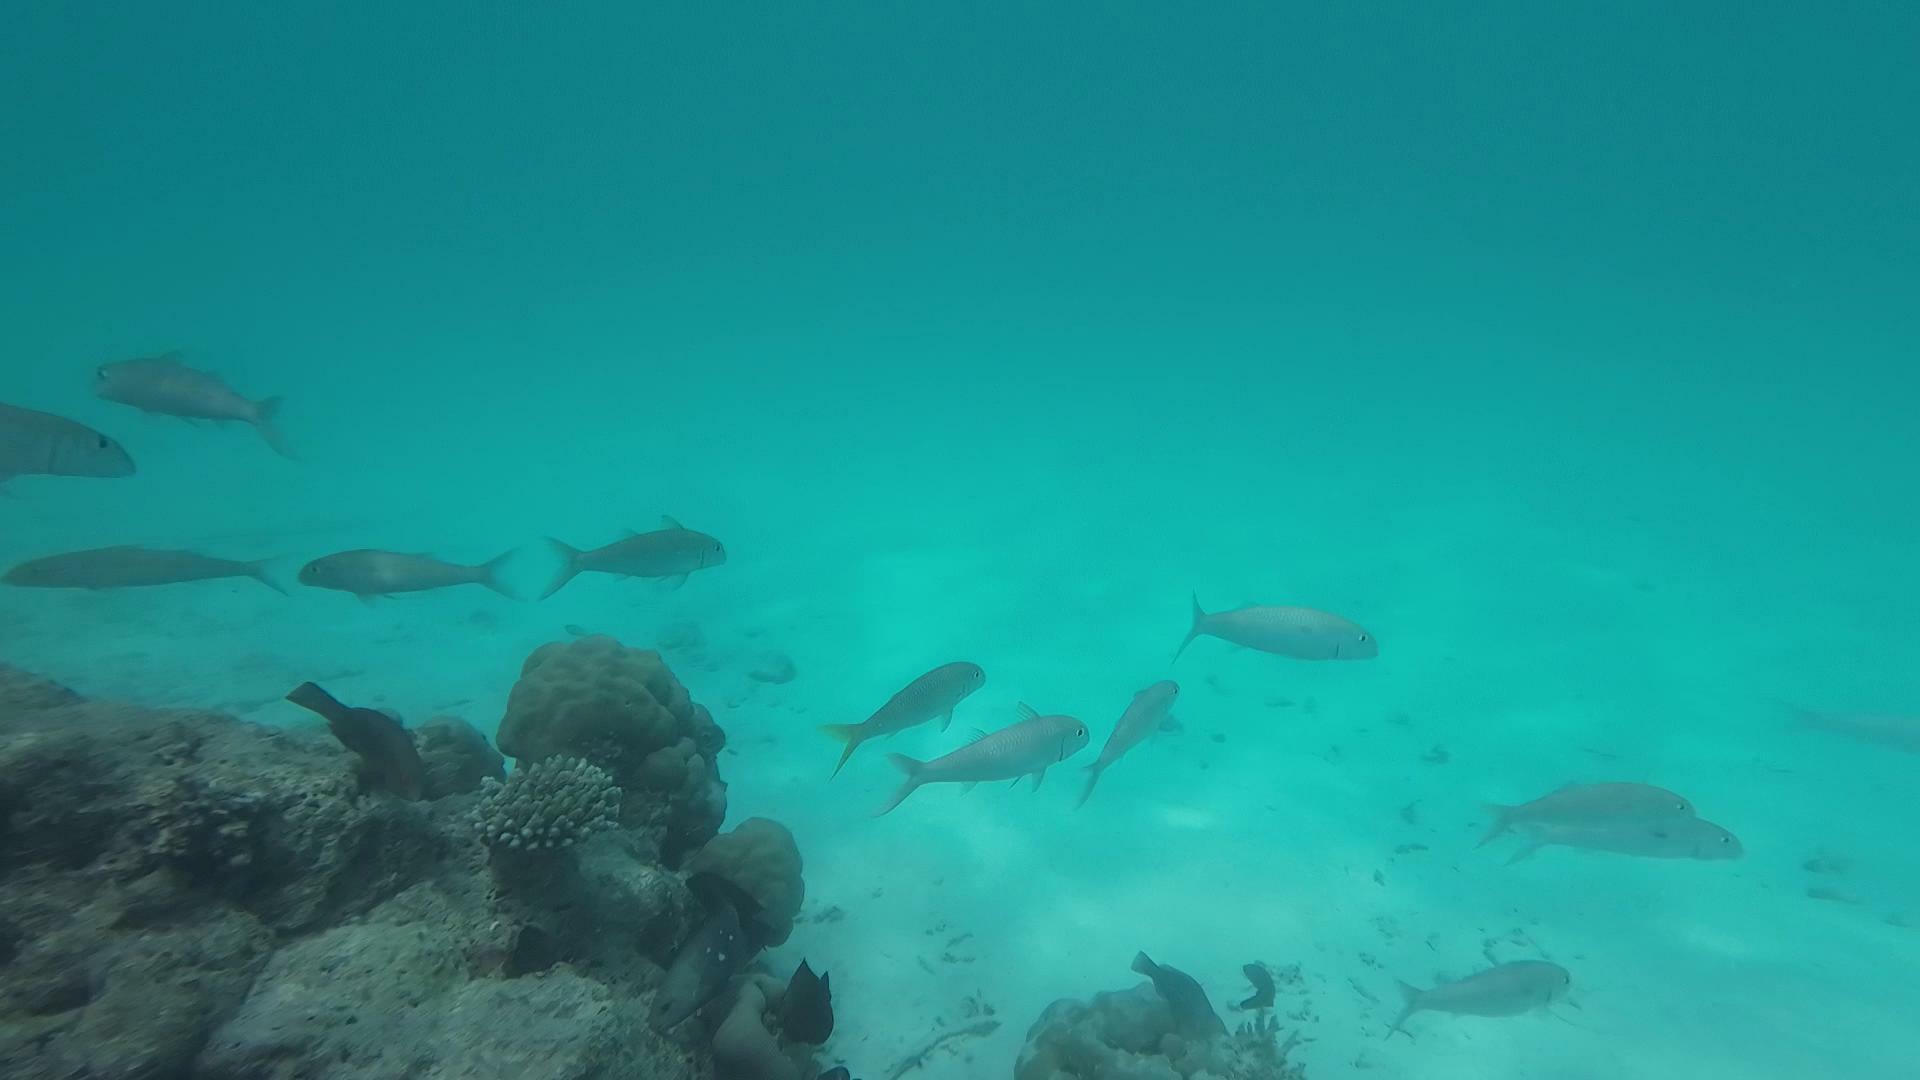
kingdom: Animalia
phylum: Chordata
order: Perciformes
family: Mullidae
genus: Mulloidichthys
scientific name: Mulloidichthys flavolineatus
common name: Yellowstripe goatfish
